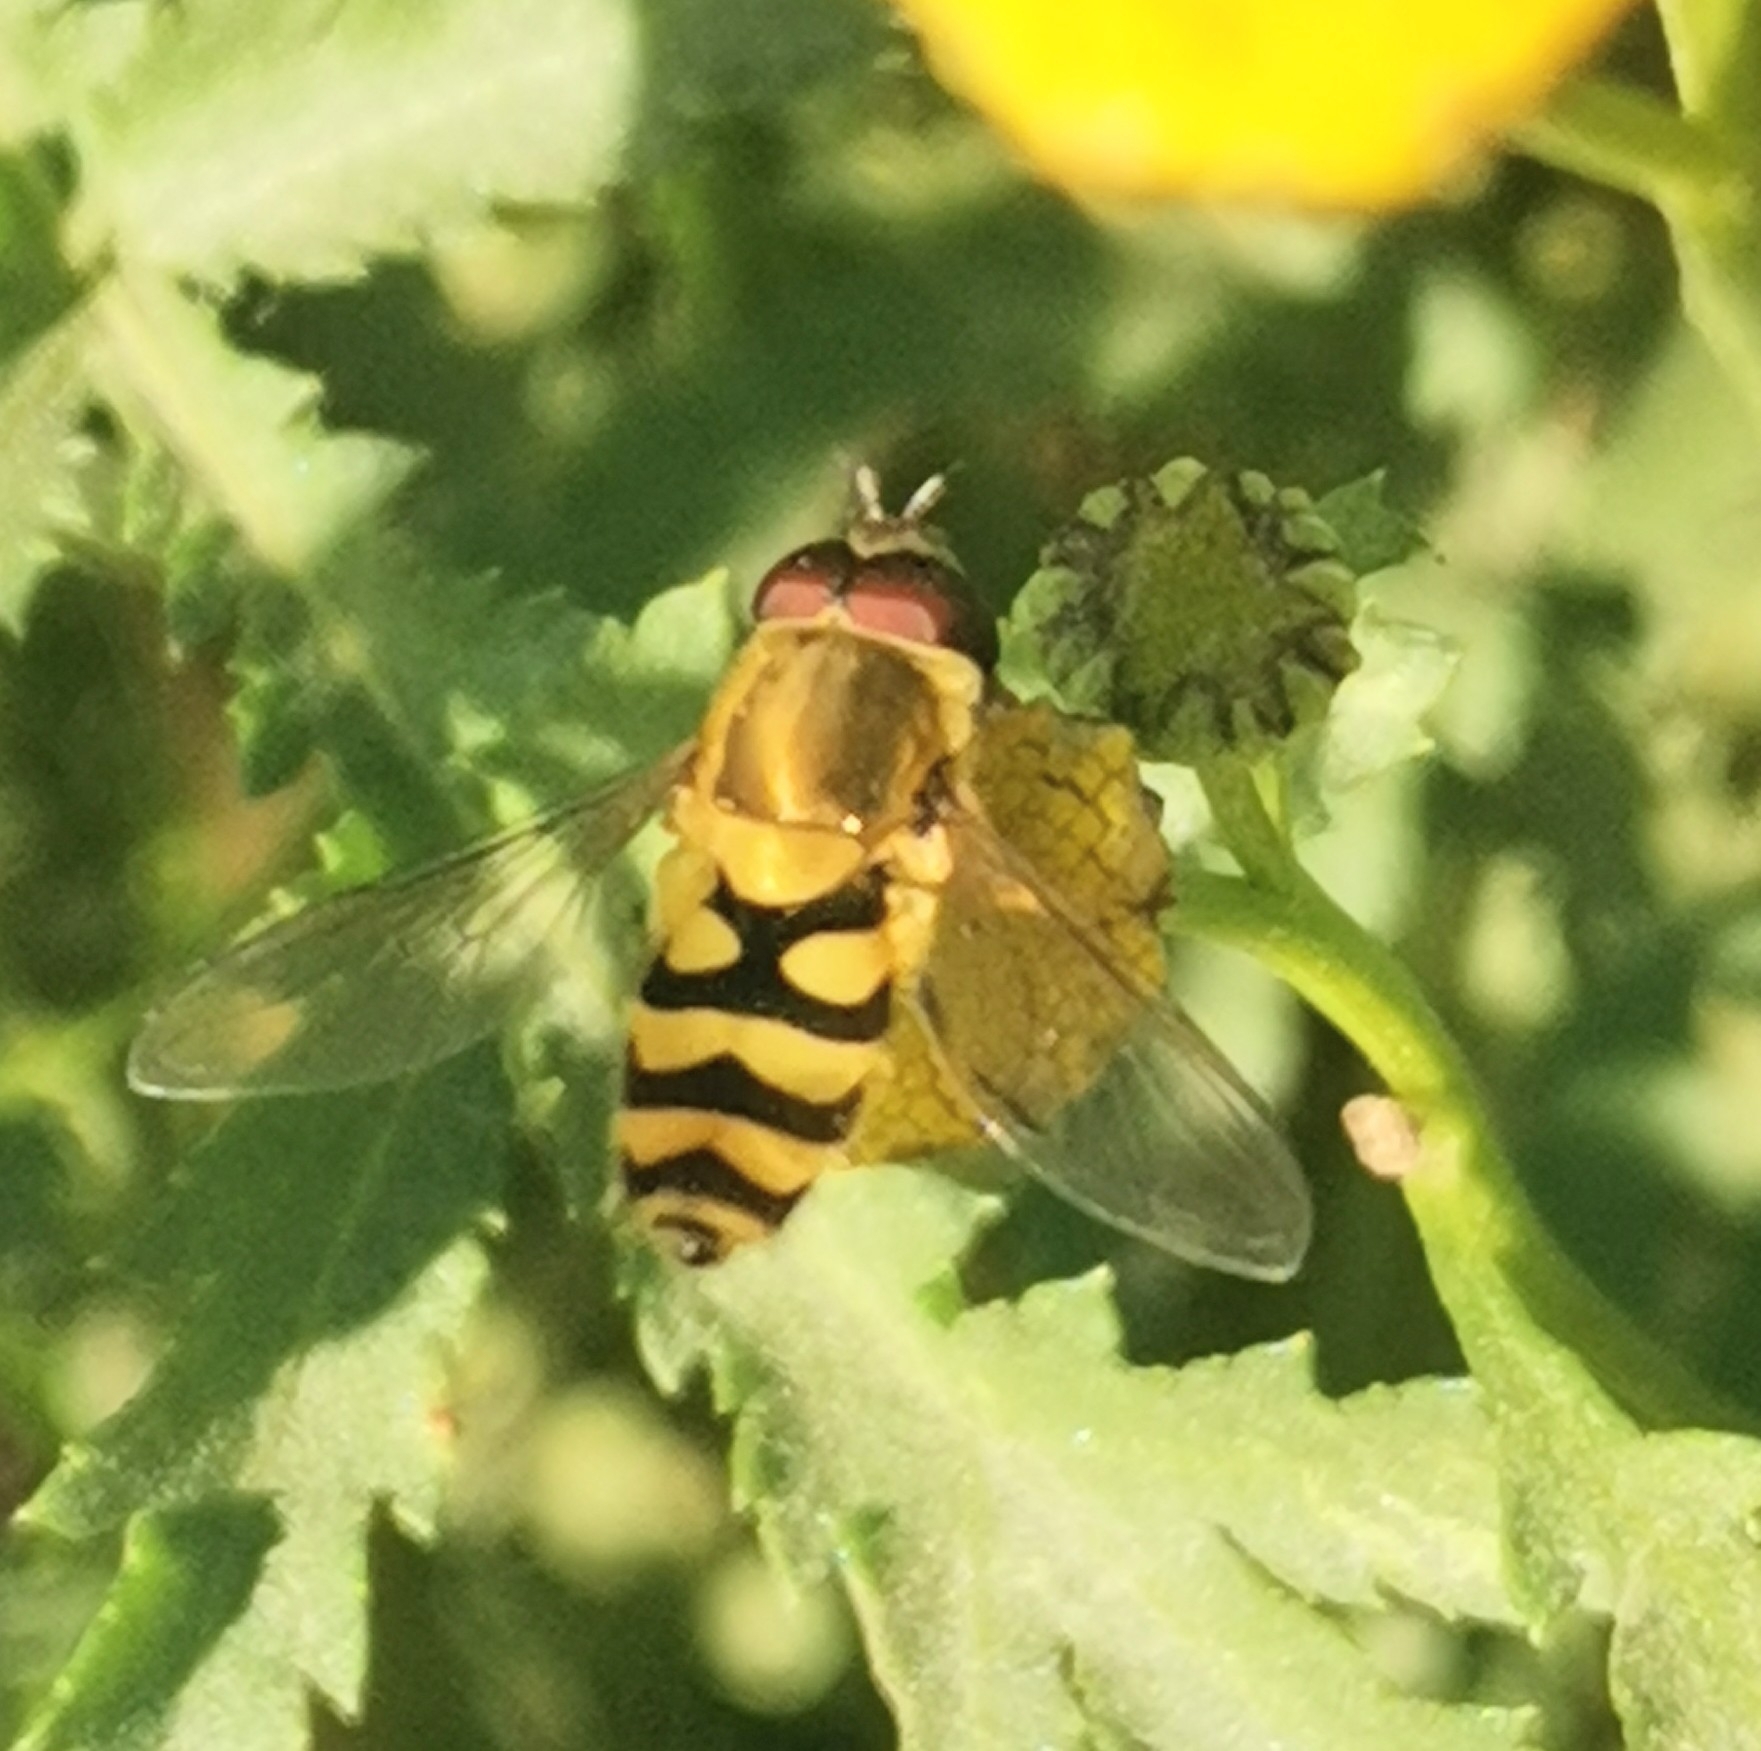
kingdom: Animalia
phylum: Arthropoda
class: Insecta
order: Diptera
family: Syrphidae
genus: Syrphus
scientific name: Syrphus
